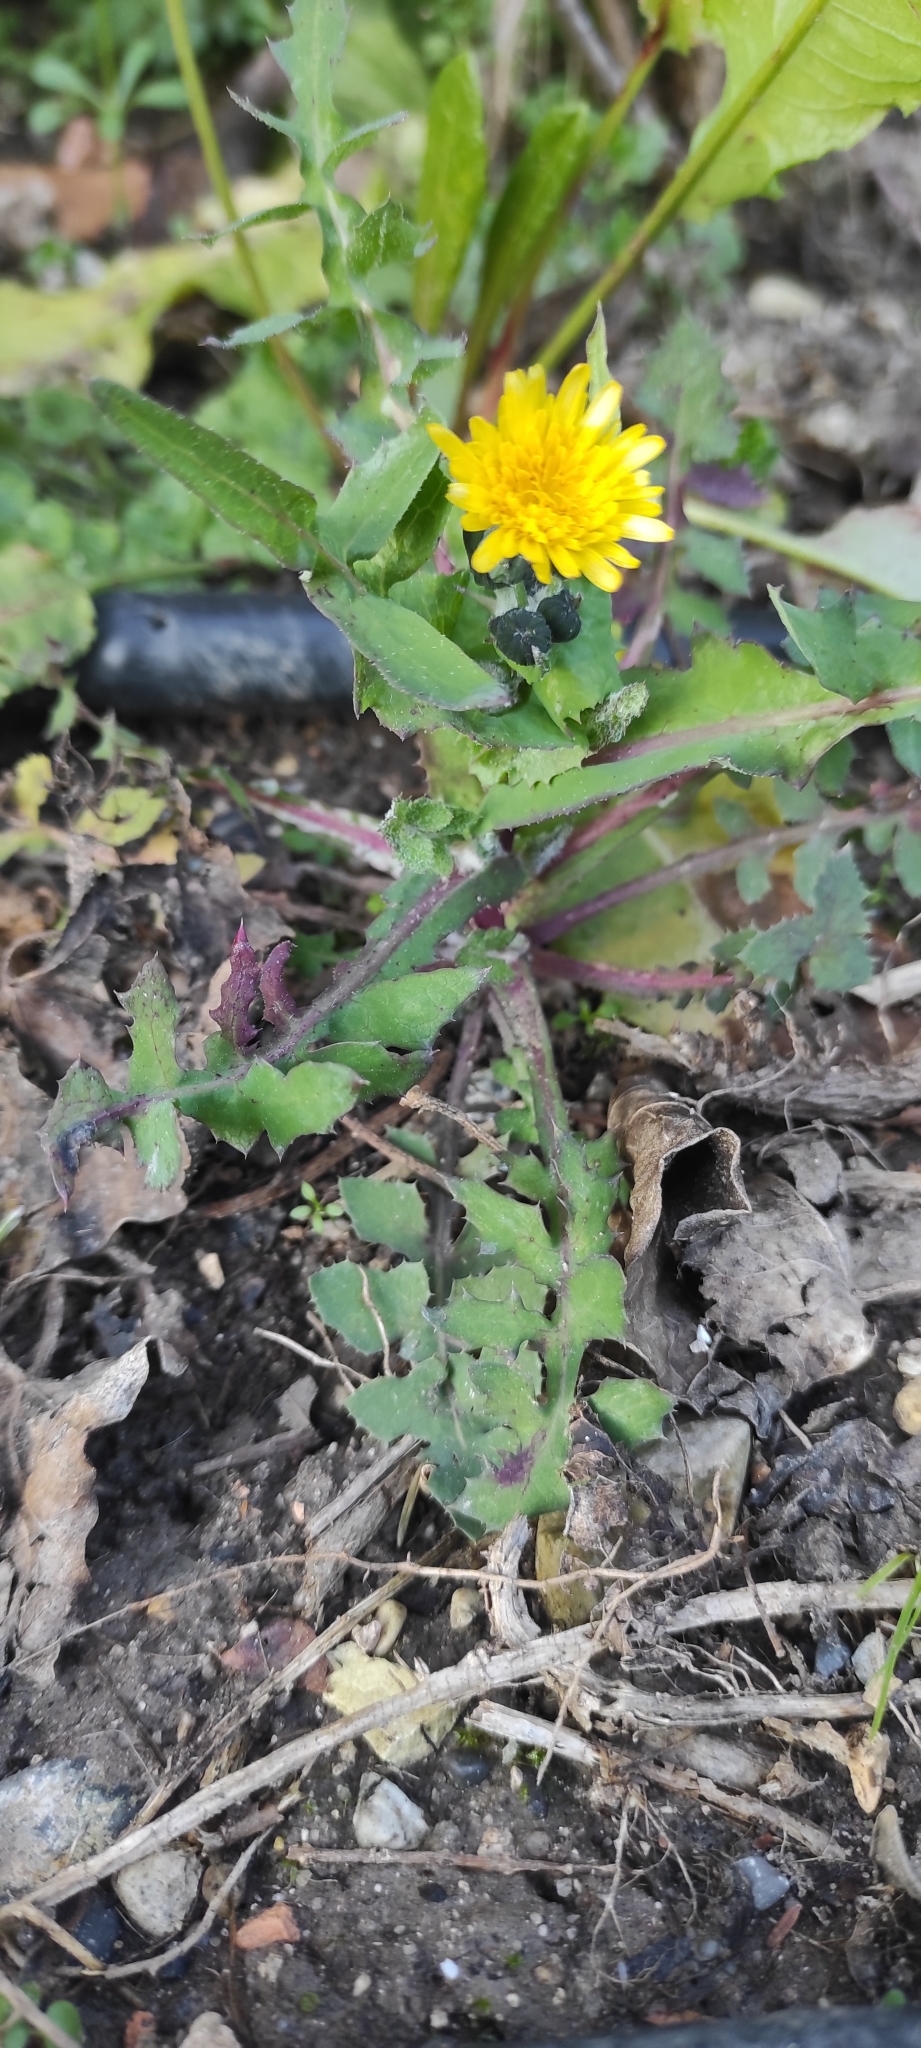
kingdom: Plantae
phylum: Tracheophyta
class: Magnoliopsida
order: Asterales
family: Asteraceae
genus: Sonchus
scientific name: Sonchus oleraceus
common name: Common sowthistle
